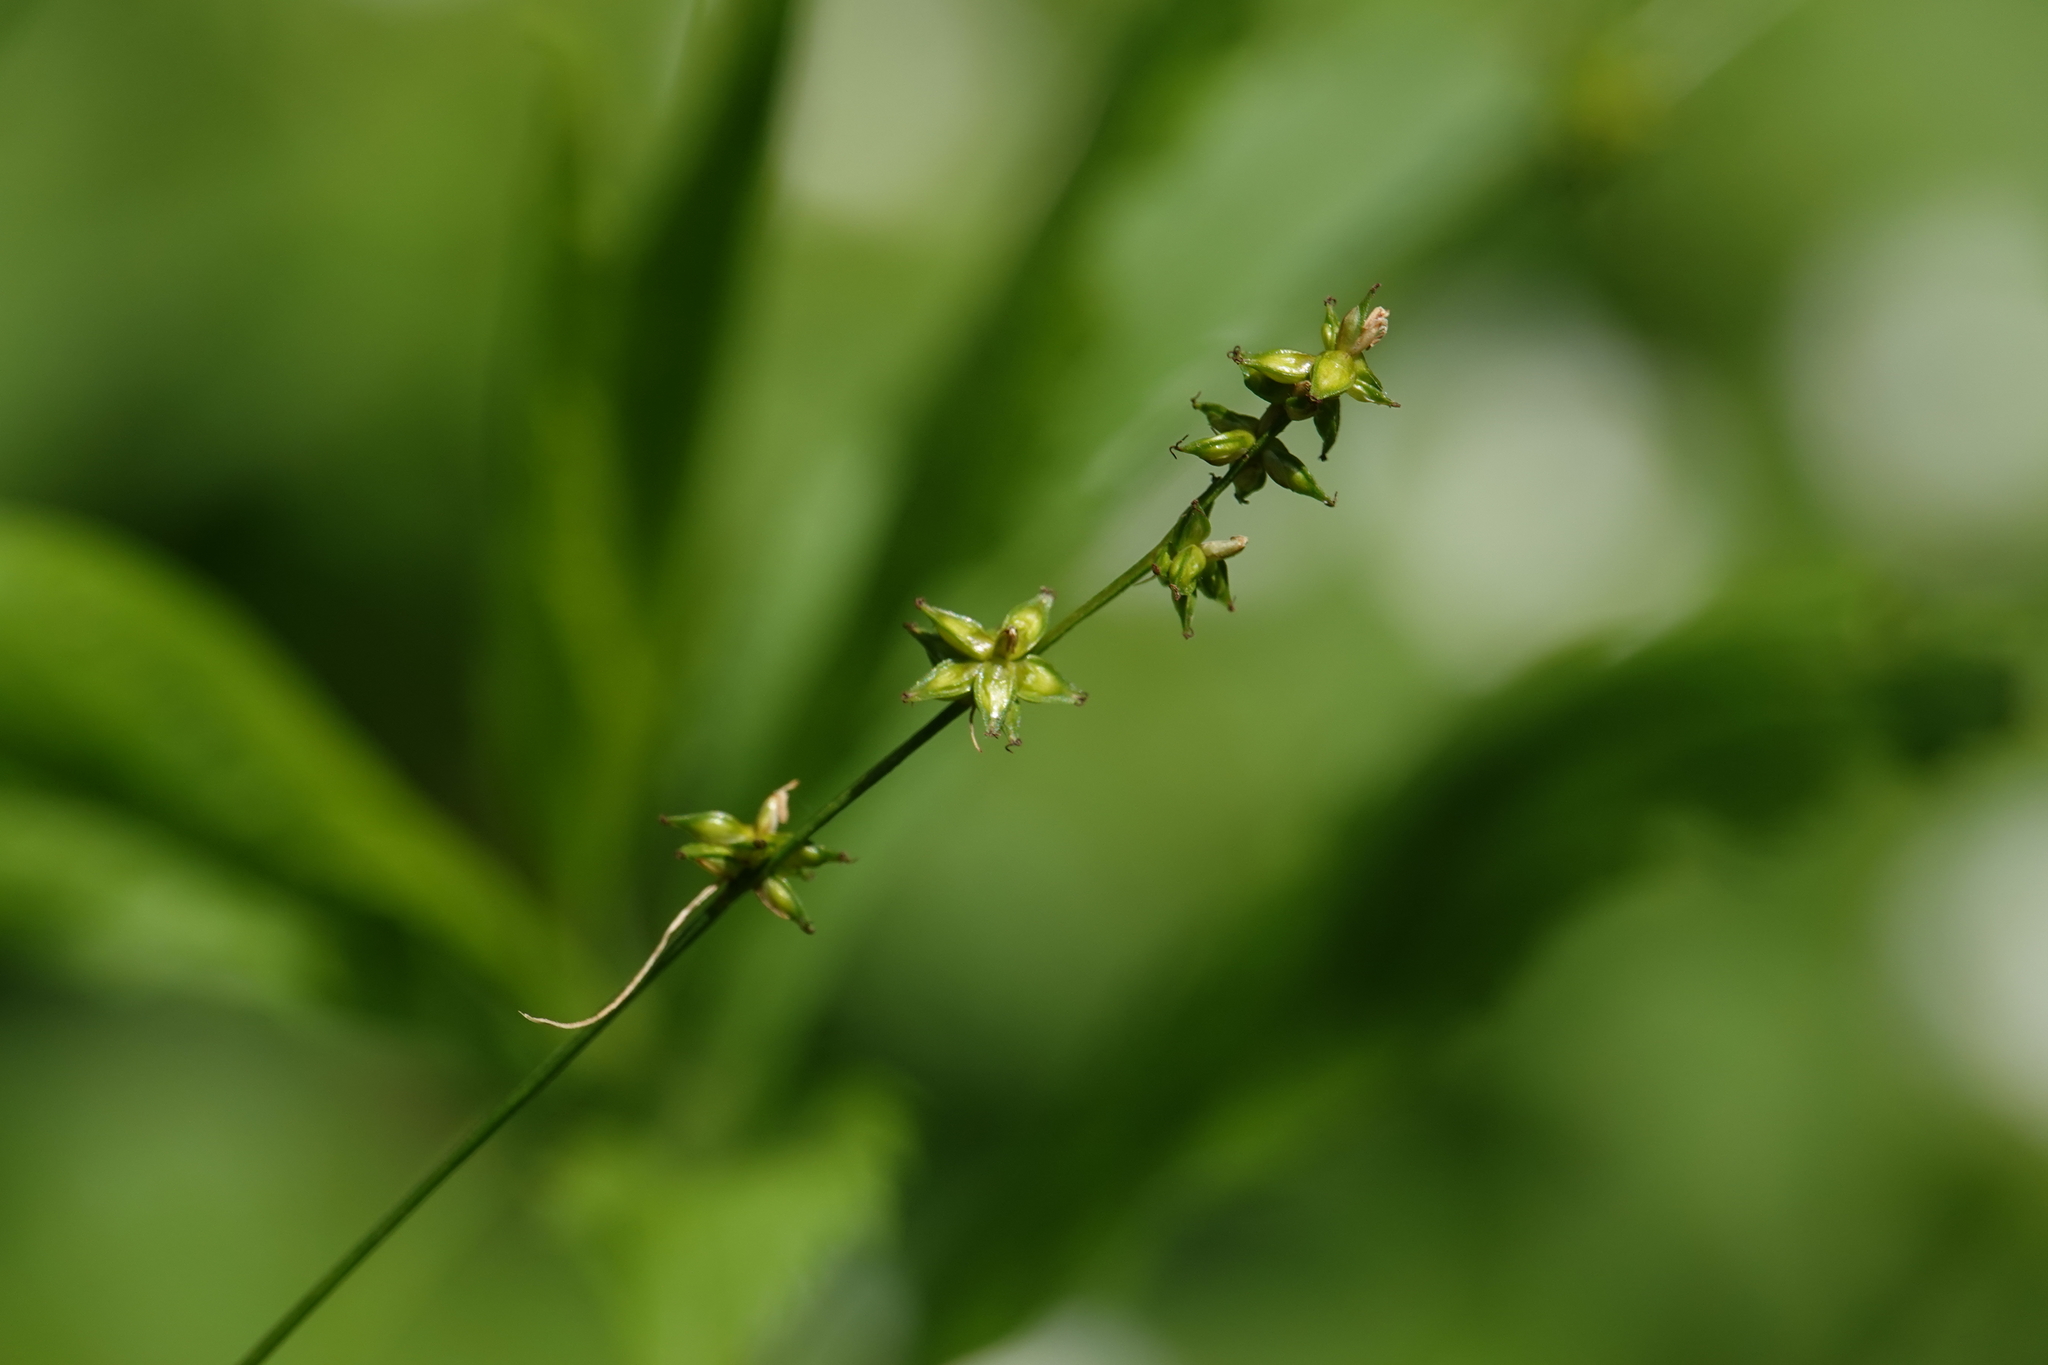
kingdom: Plantae
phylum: Tracheophyta
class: Liliopsida
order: Poales
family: Cyperaceae
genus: Carex
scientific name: Carex rosea
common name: Curly-styled wood sedge
